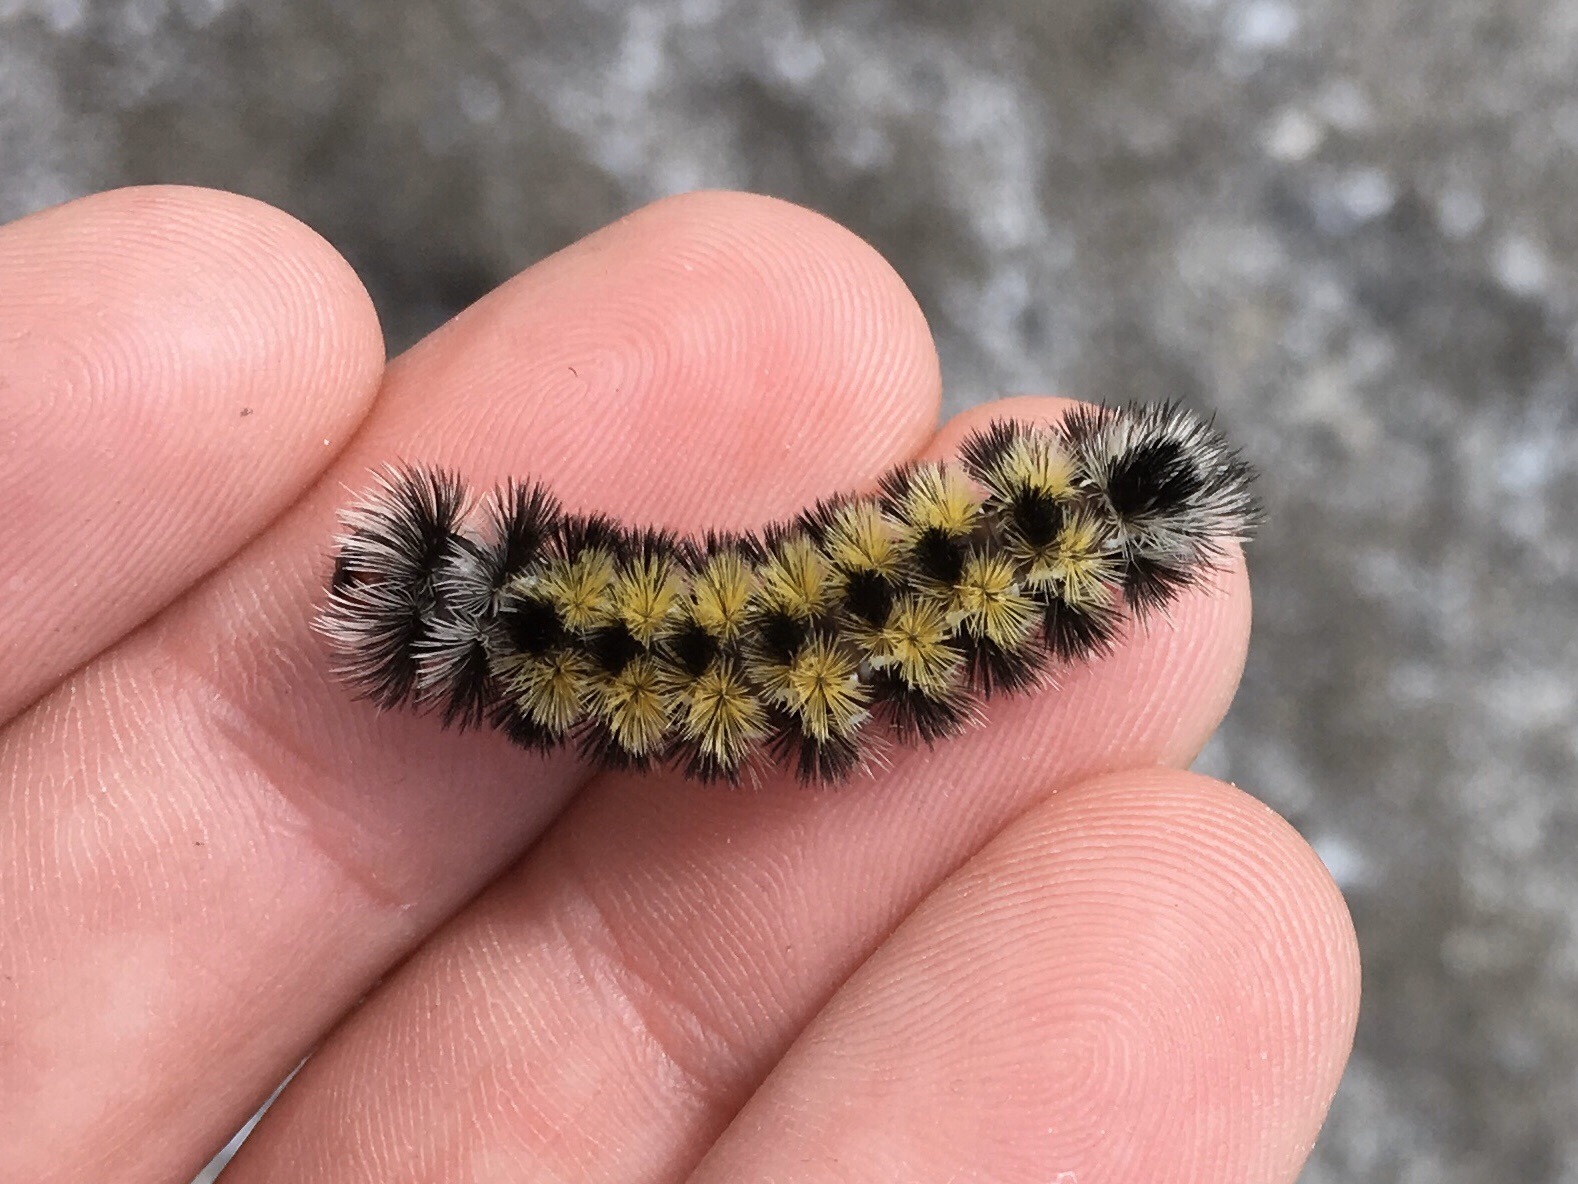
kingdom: Animalia
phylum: Arthropoda
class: Insecta
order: Lepidoptera
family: Erebidae
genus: Ctenucha
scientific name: Ctenucha virginica
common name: Virginia ctenucha moth
